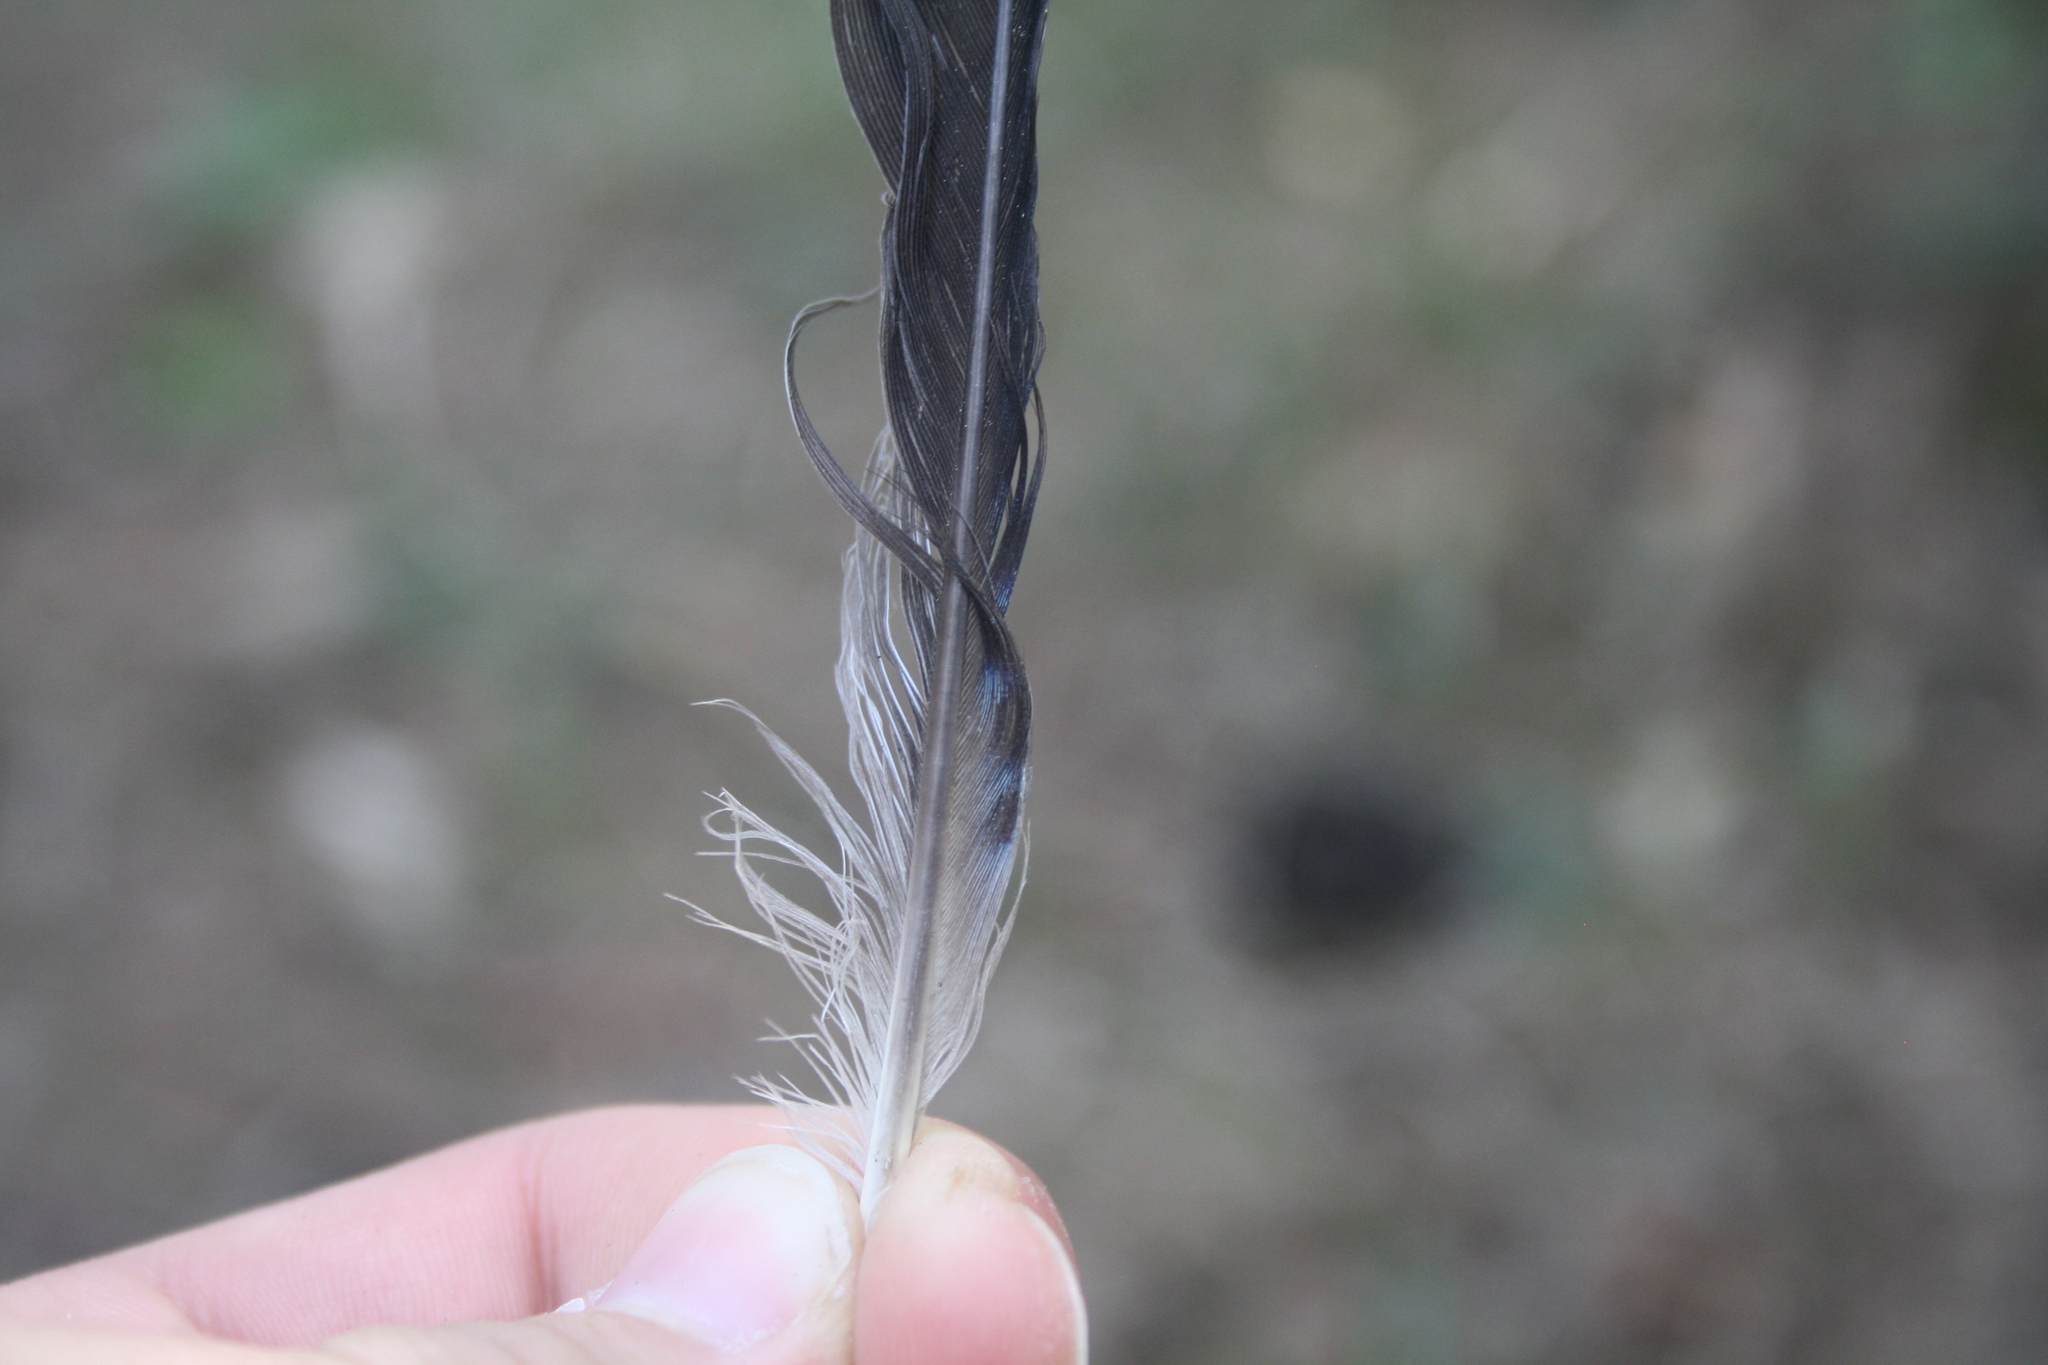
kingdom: Animalia
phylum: Chordata
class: Aves
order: Passeriformes
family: Corvidae
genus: Garrulus
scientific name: Garrulus glandarius
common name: Eurasian jay
